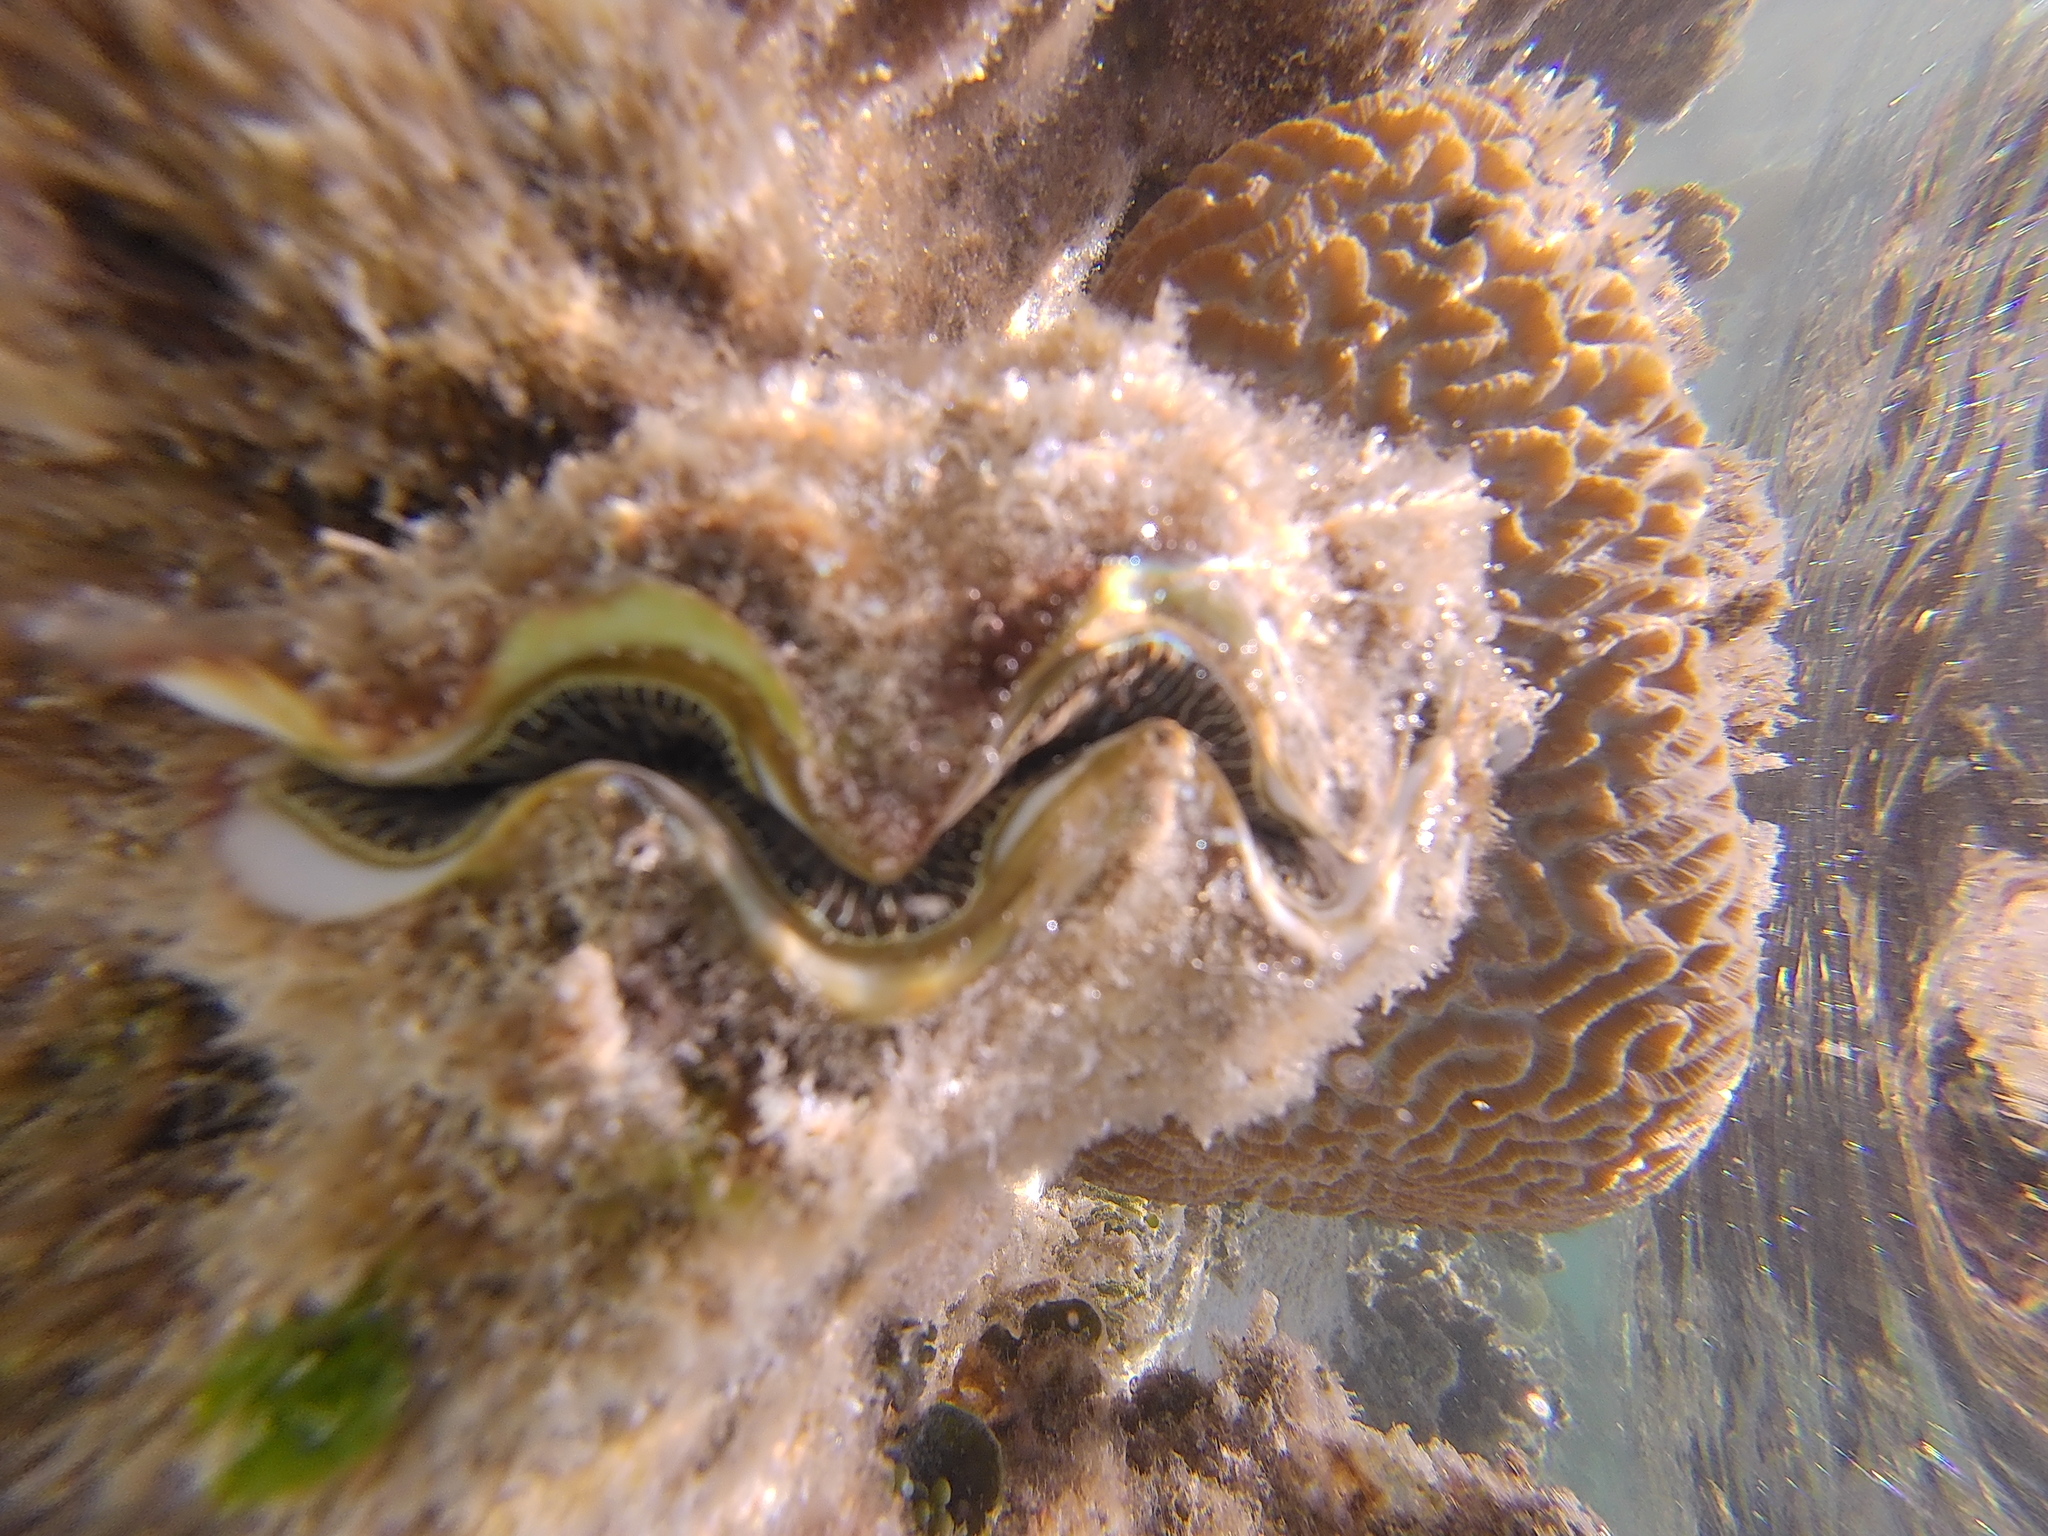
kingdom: Animalia
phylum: Mollusca
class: Bivalvia
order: Cardiida
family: Cardiidae
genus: Tridacna
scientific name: Tridacna maxima
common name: Small giant clam
